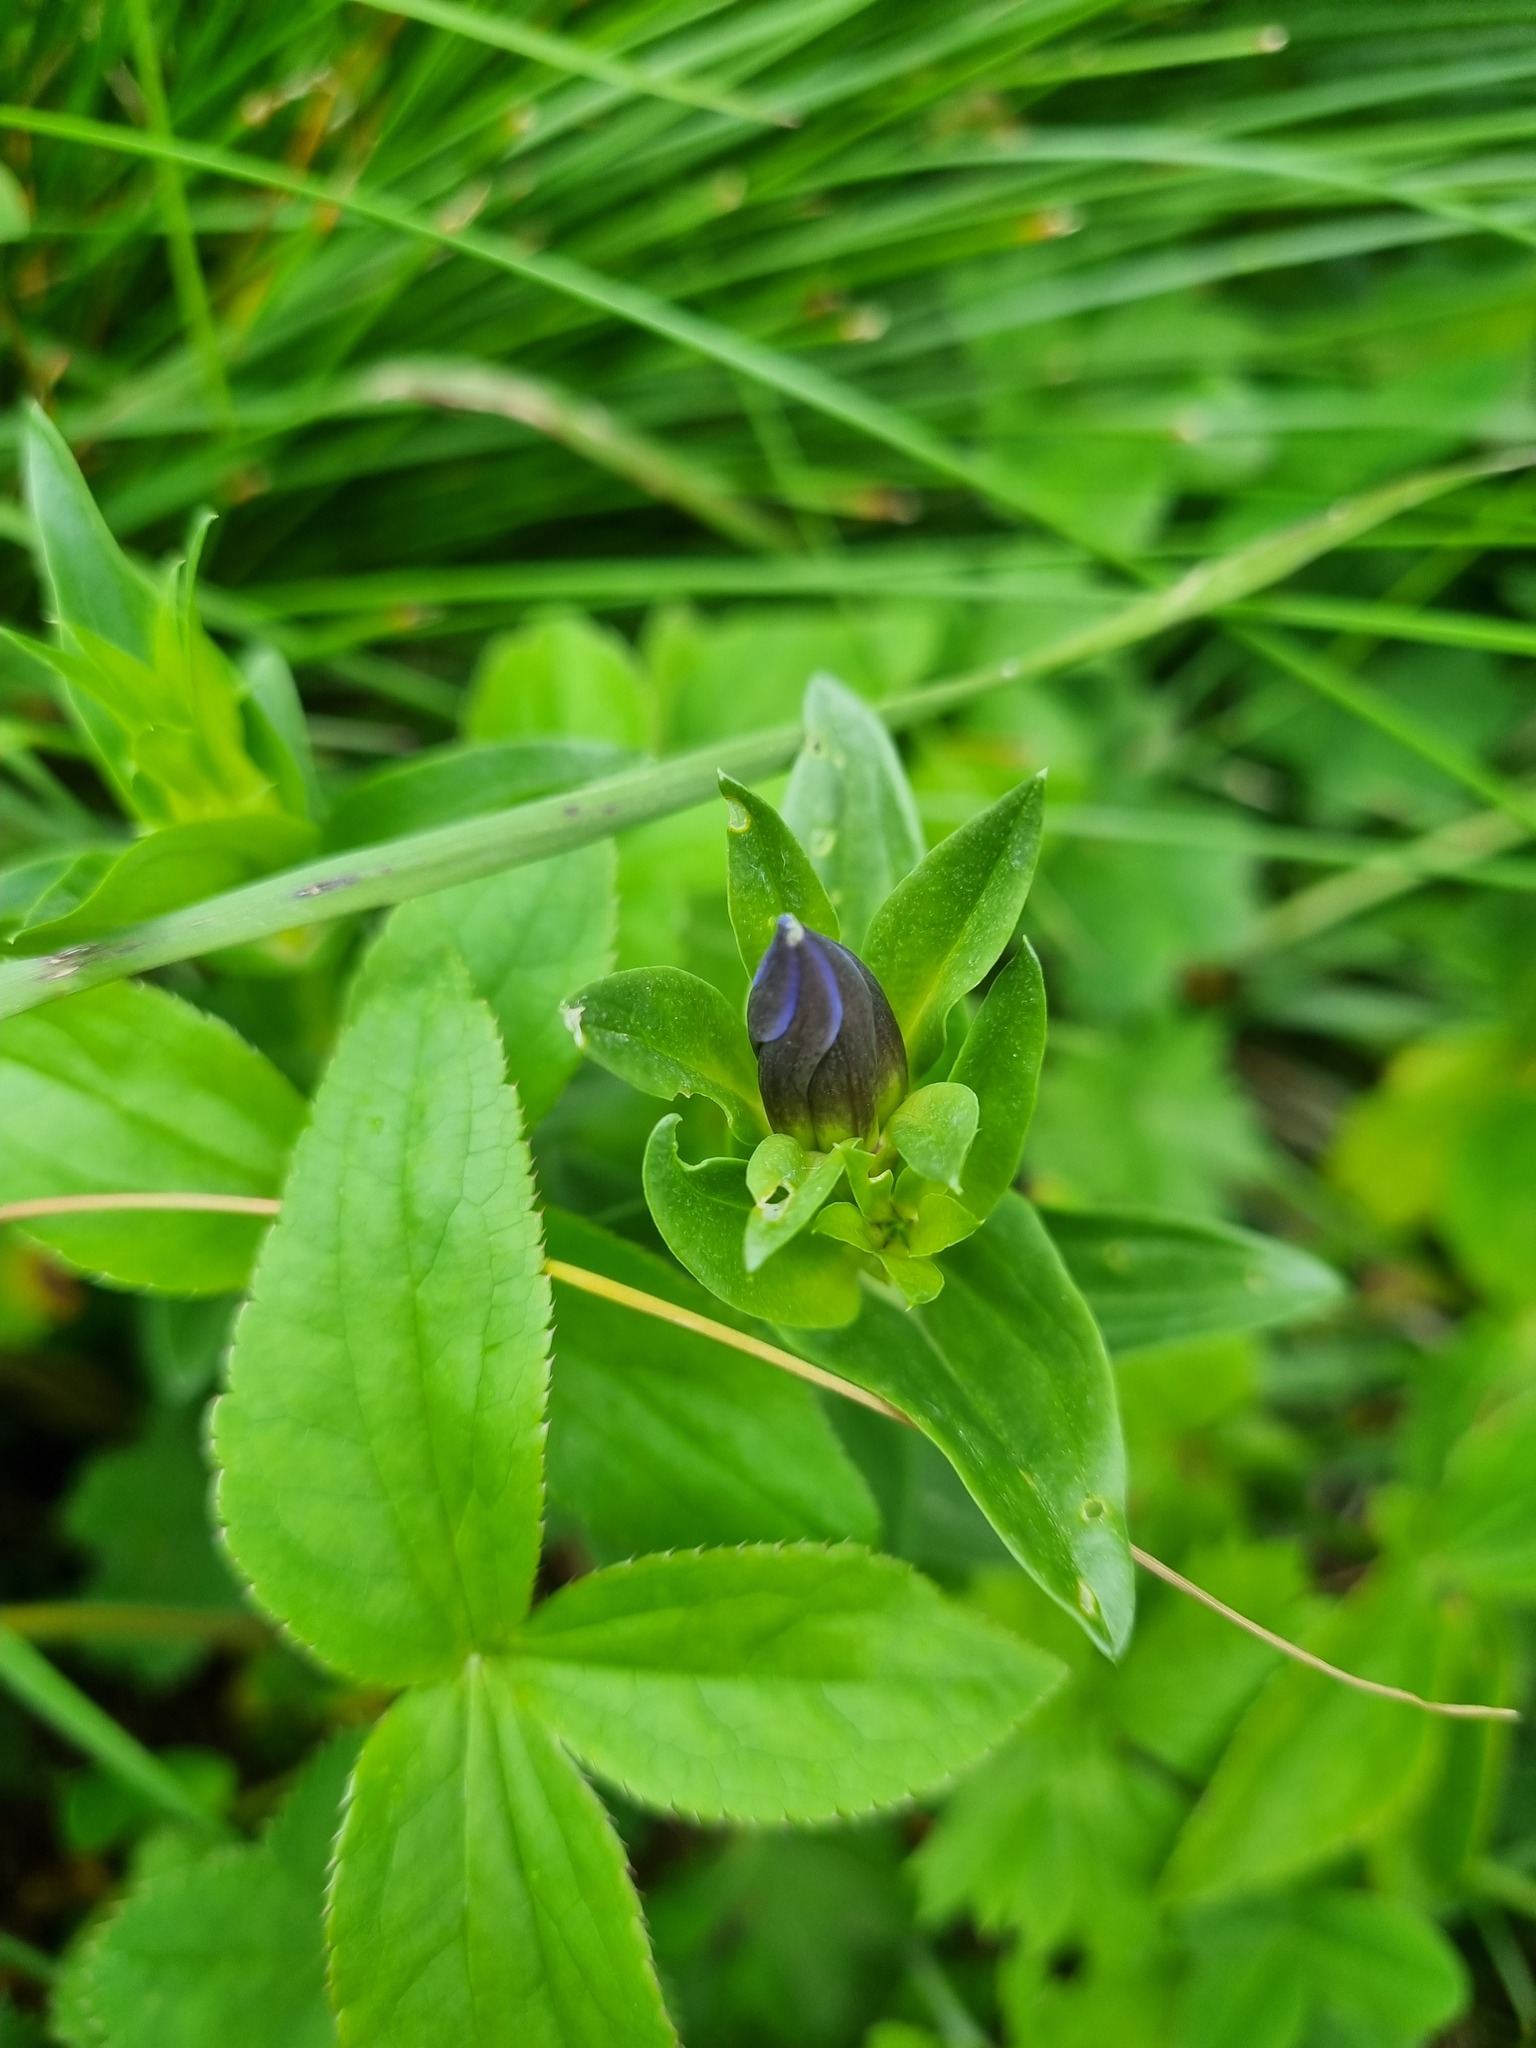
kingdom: Plantae
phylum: Tracheophyta
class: Magnoliopsida
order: Gentianales
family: Gentianaceae
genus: Gentiana
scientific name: Gentiana septemfida
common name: Crested gentian
